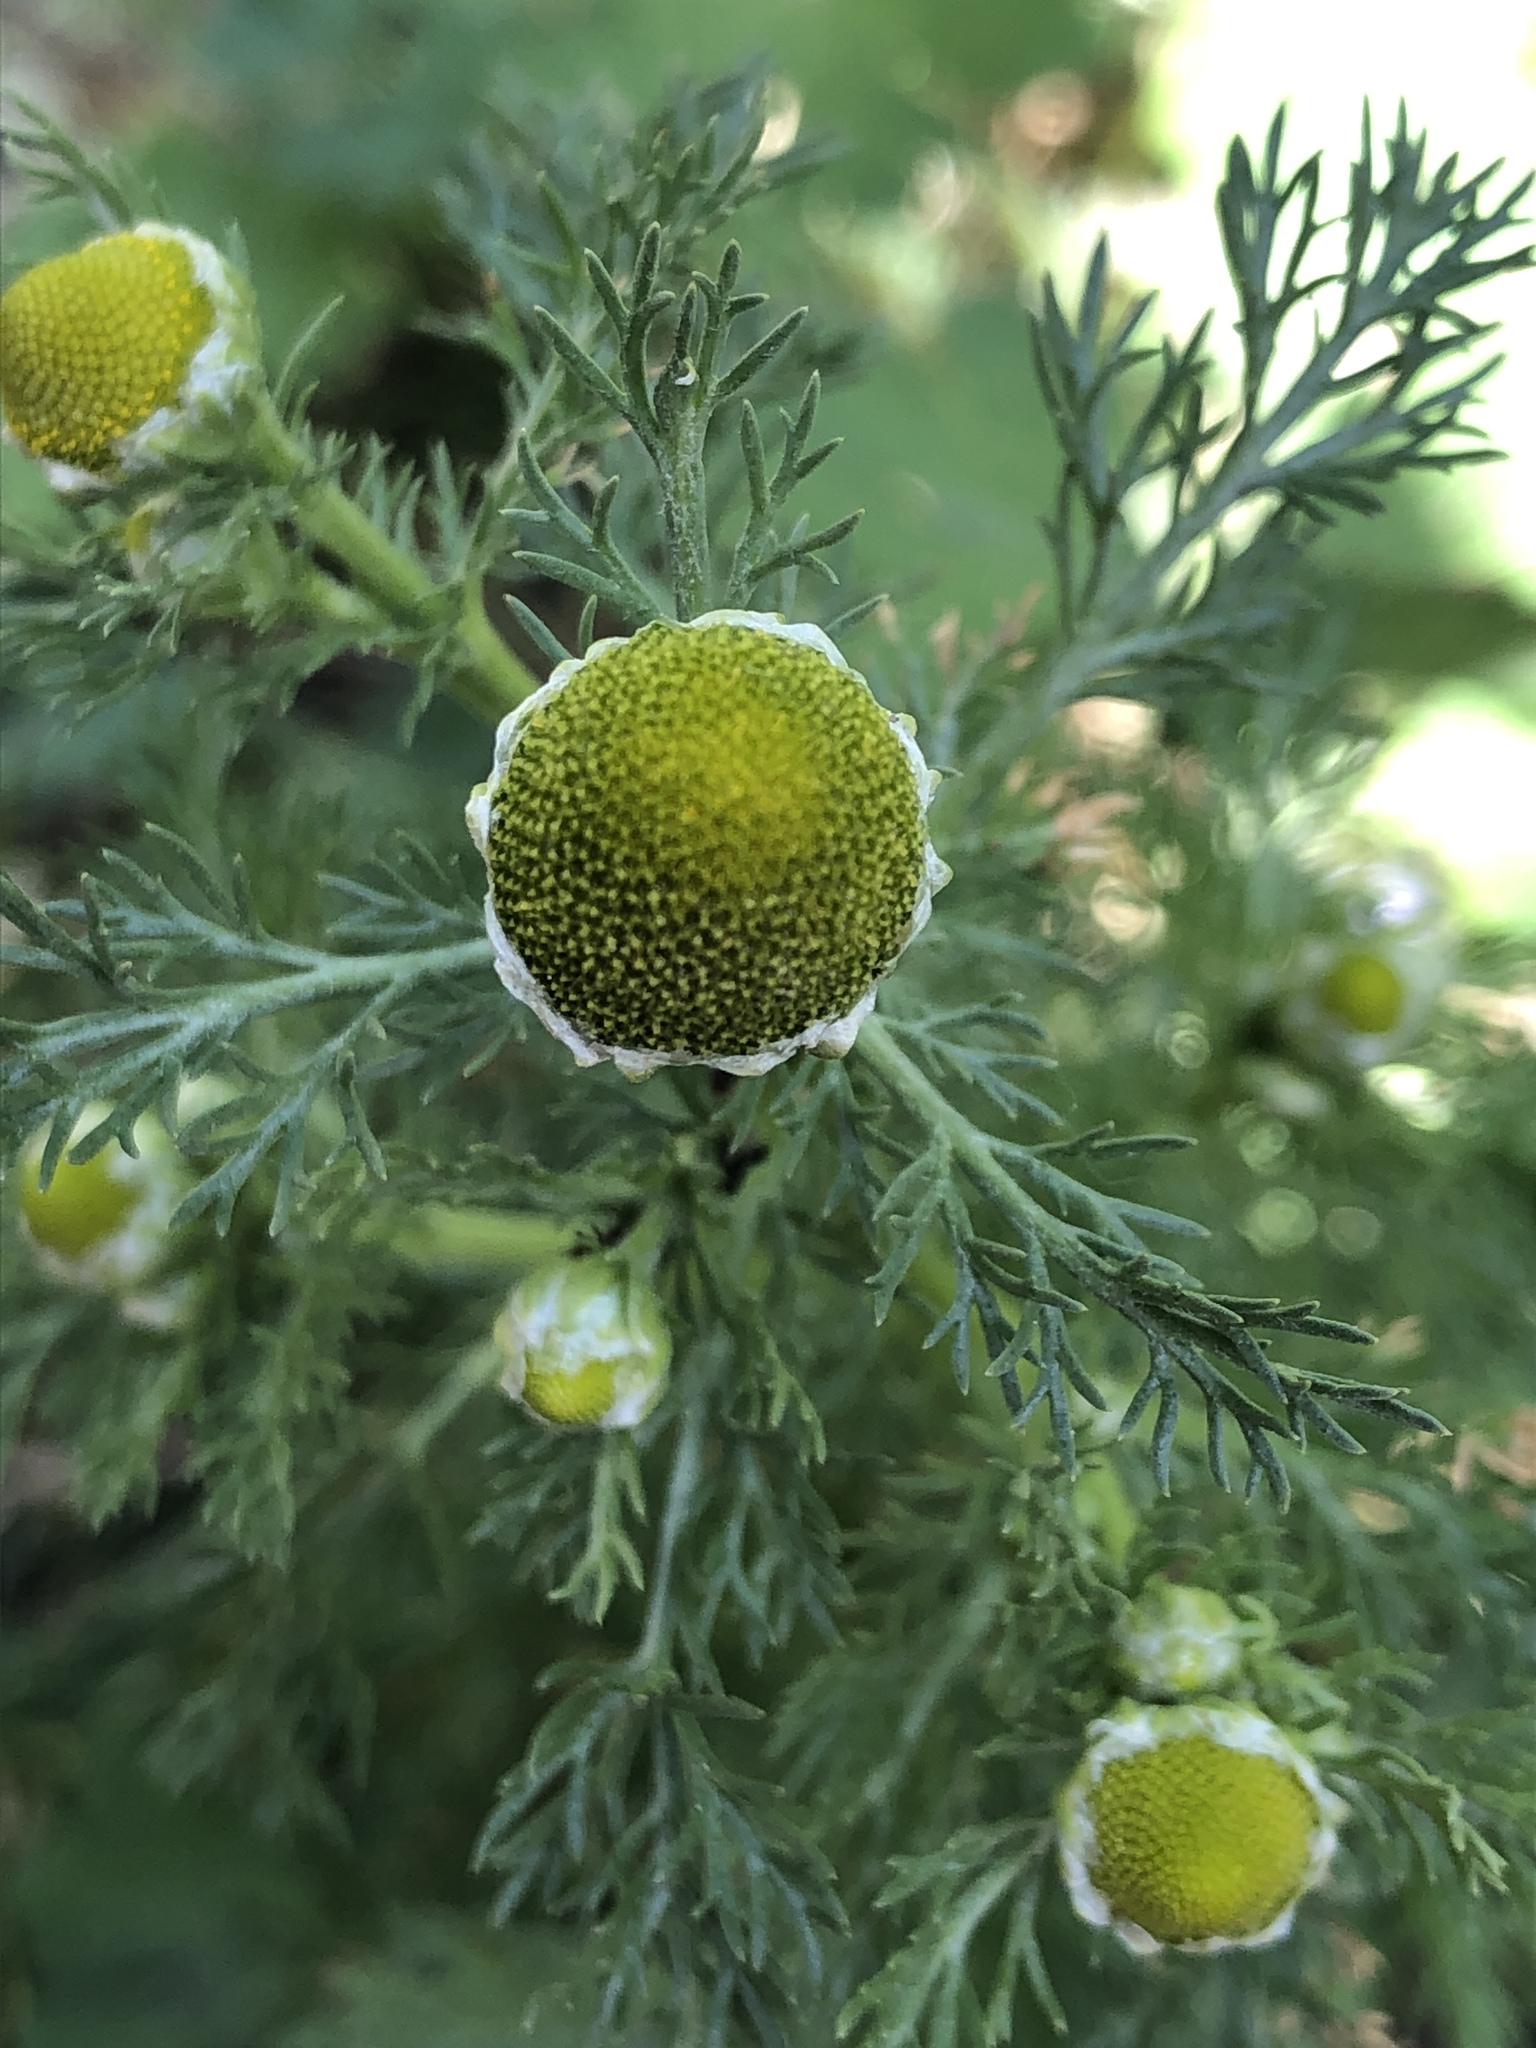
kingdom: Plantae
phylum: Tracheophyta
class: Magnoliopsida
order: Asterales
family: Asteraceae
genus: Matricaria
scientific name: Matricaria discoidea
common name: Disc mayweed
